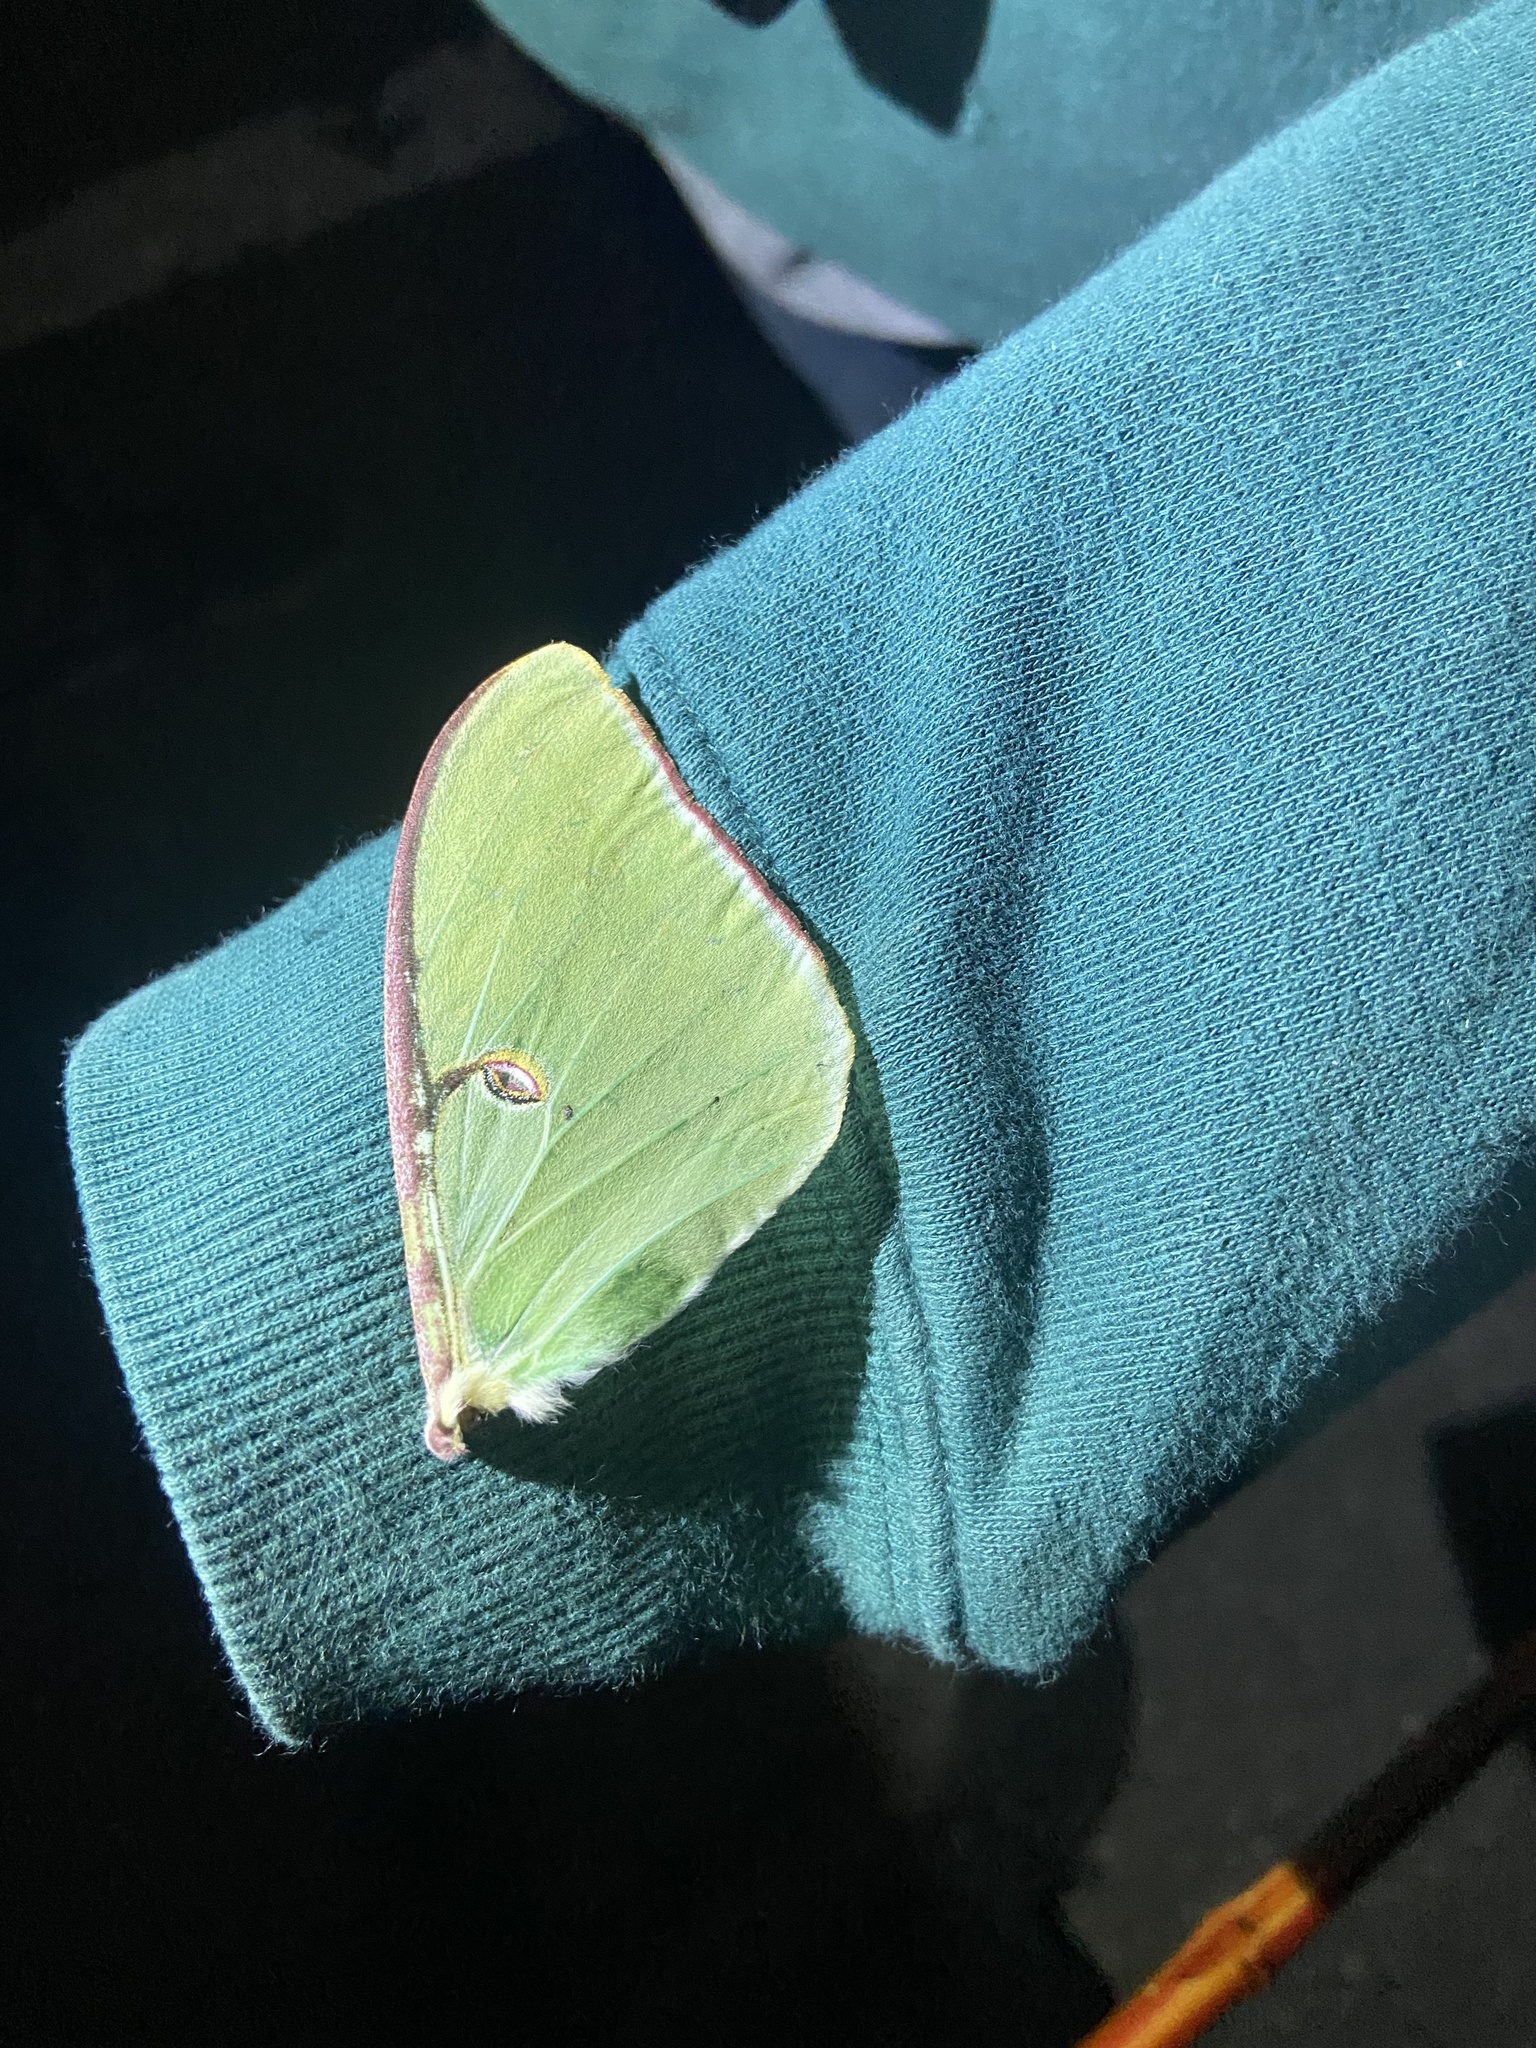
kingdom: Animalia
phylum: Arthropoda
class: Insecta
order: Lepidoptera
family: Saturniidae
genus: Actias
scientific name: Actias luna
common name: Luna moth
